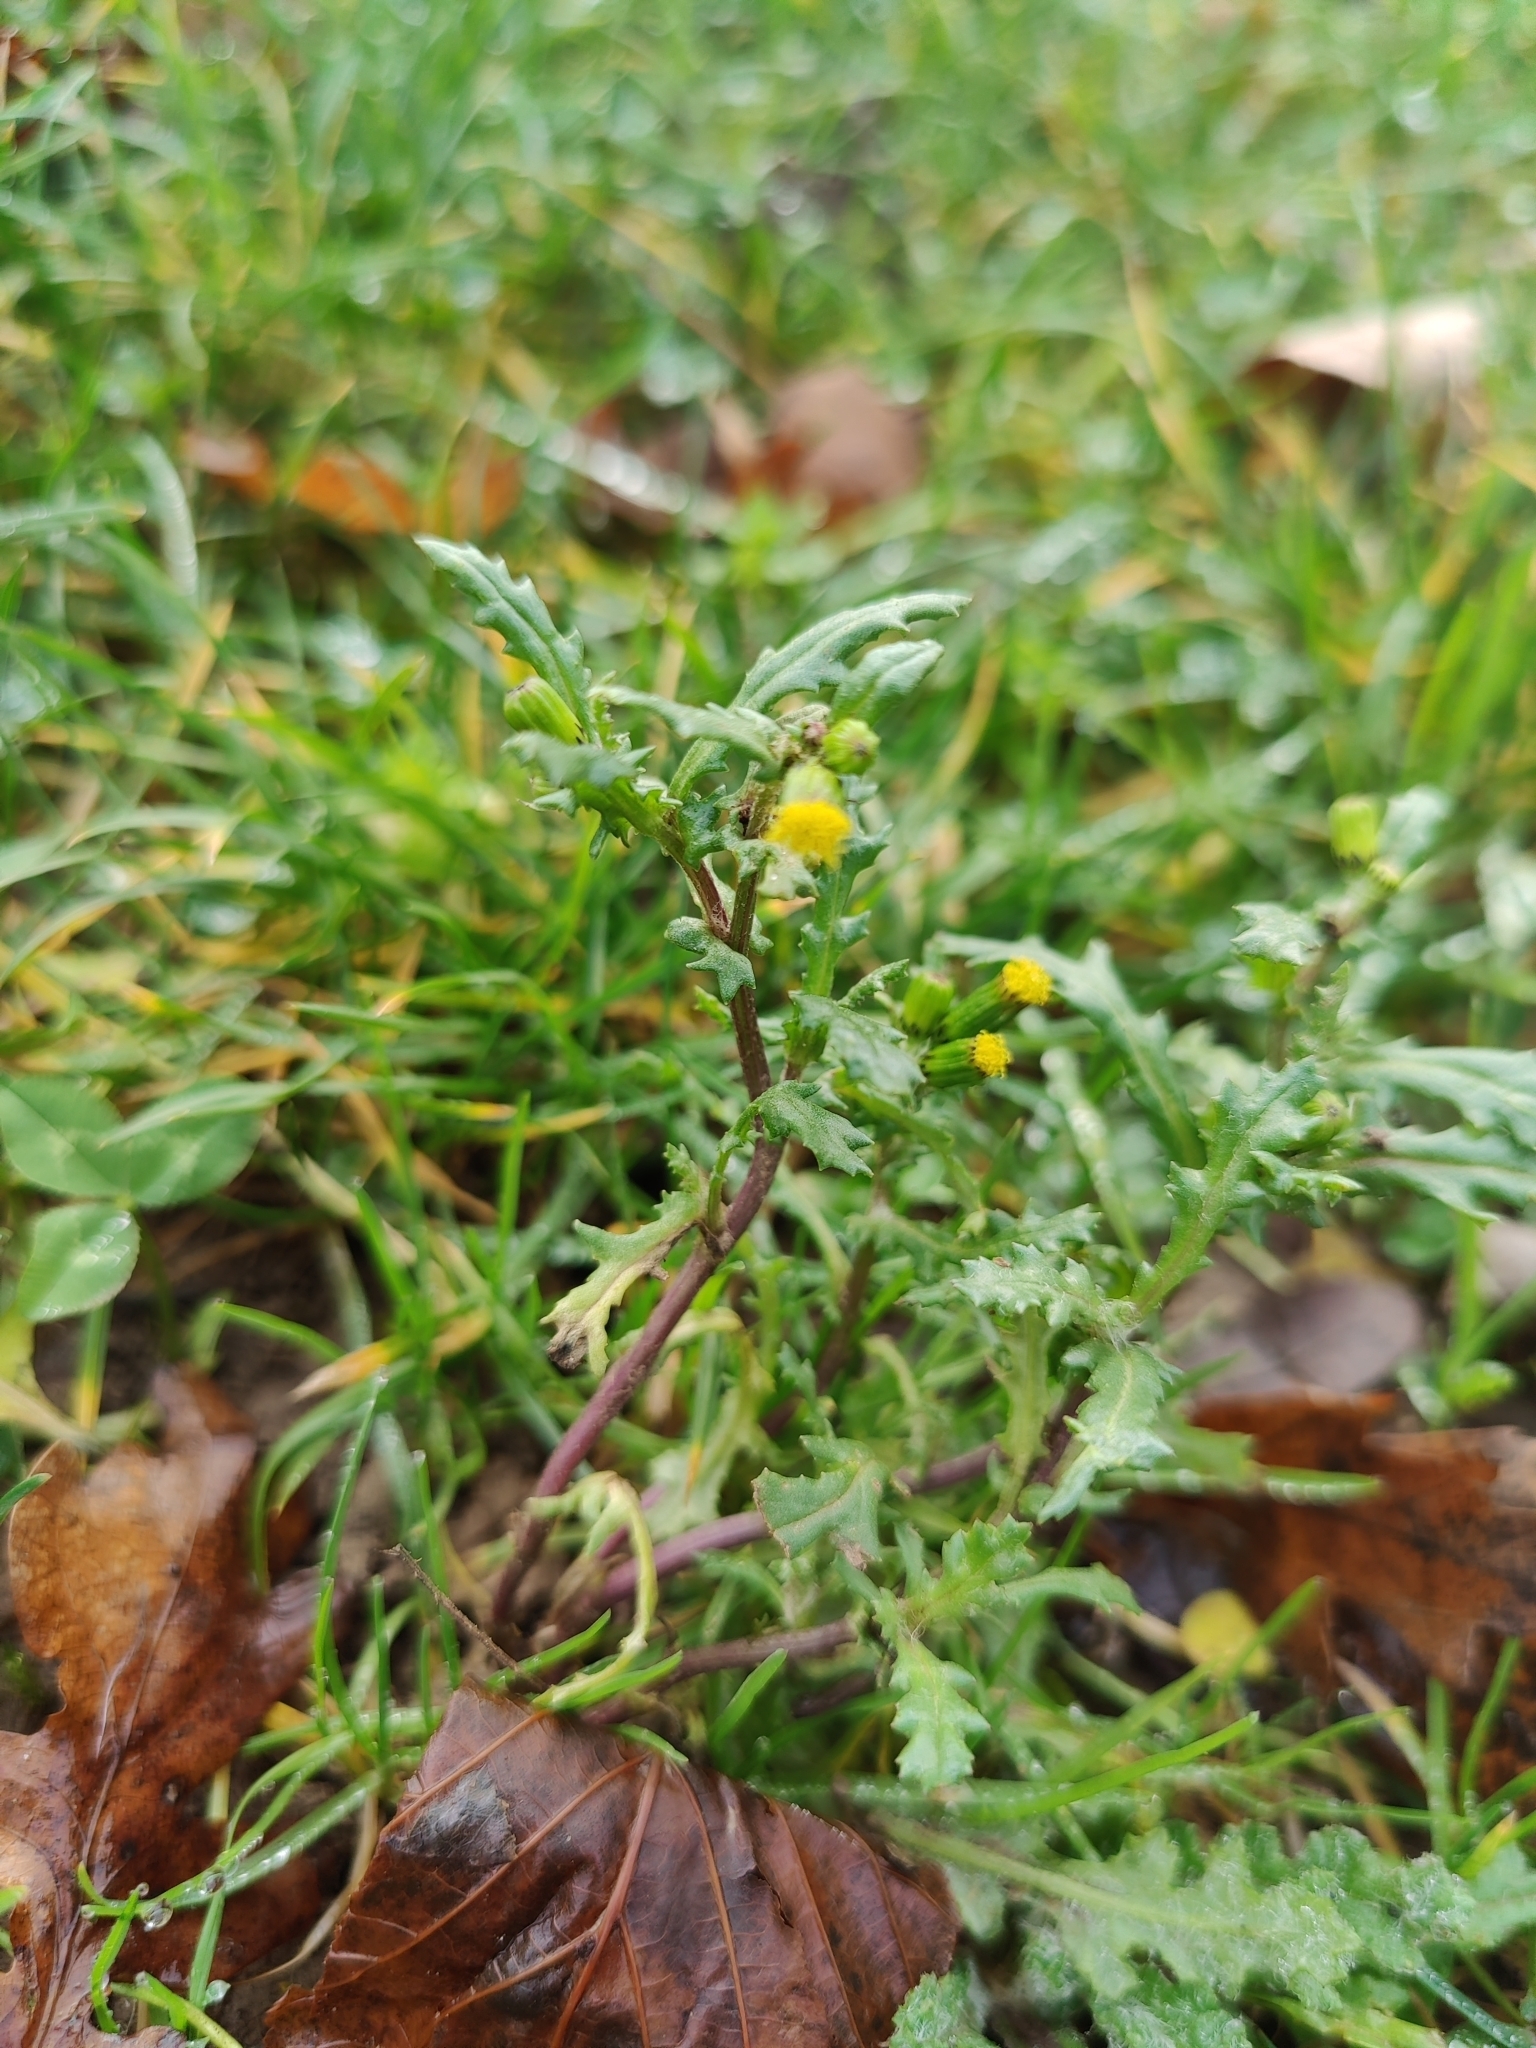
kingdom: Plantae
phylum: Tracheophyta
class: Magnoliopsida
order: Asterales
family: Asteraceae
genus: Senecio
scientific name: Senecio vulgaris
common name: Old-man-in-the-spring
